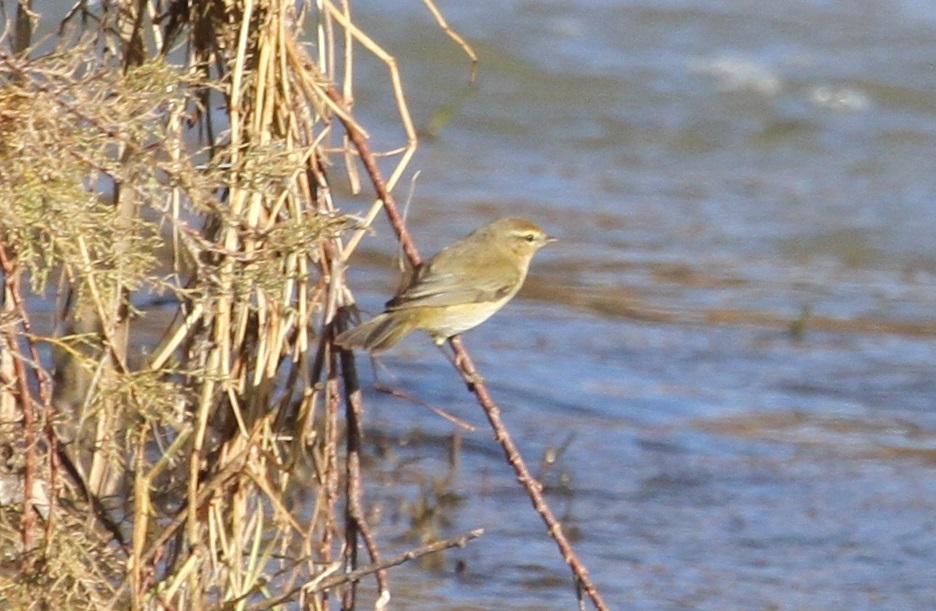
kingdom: Animalia
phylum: Chordata
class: Aves
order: Passeriformes
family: Phylloscopidae
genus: Phylloscopus
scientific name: Phylloscopus collybita
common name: Common chiffchaff
